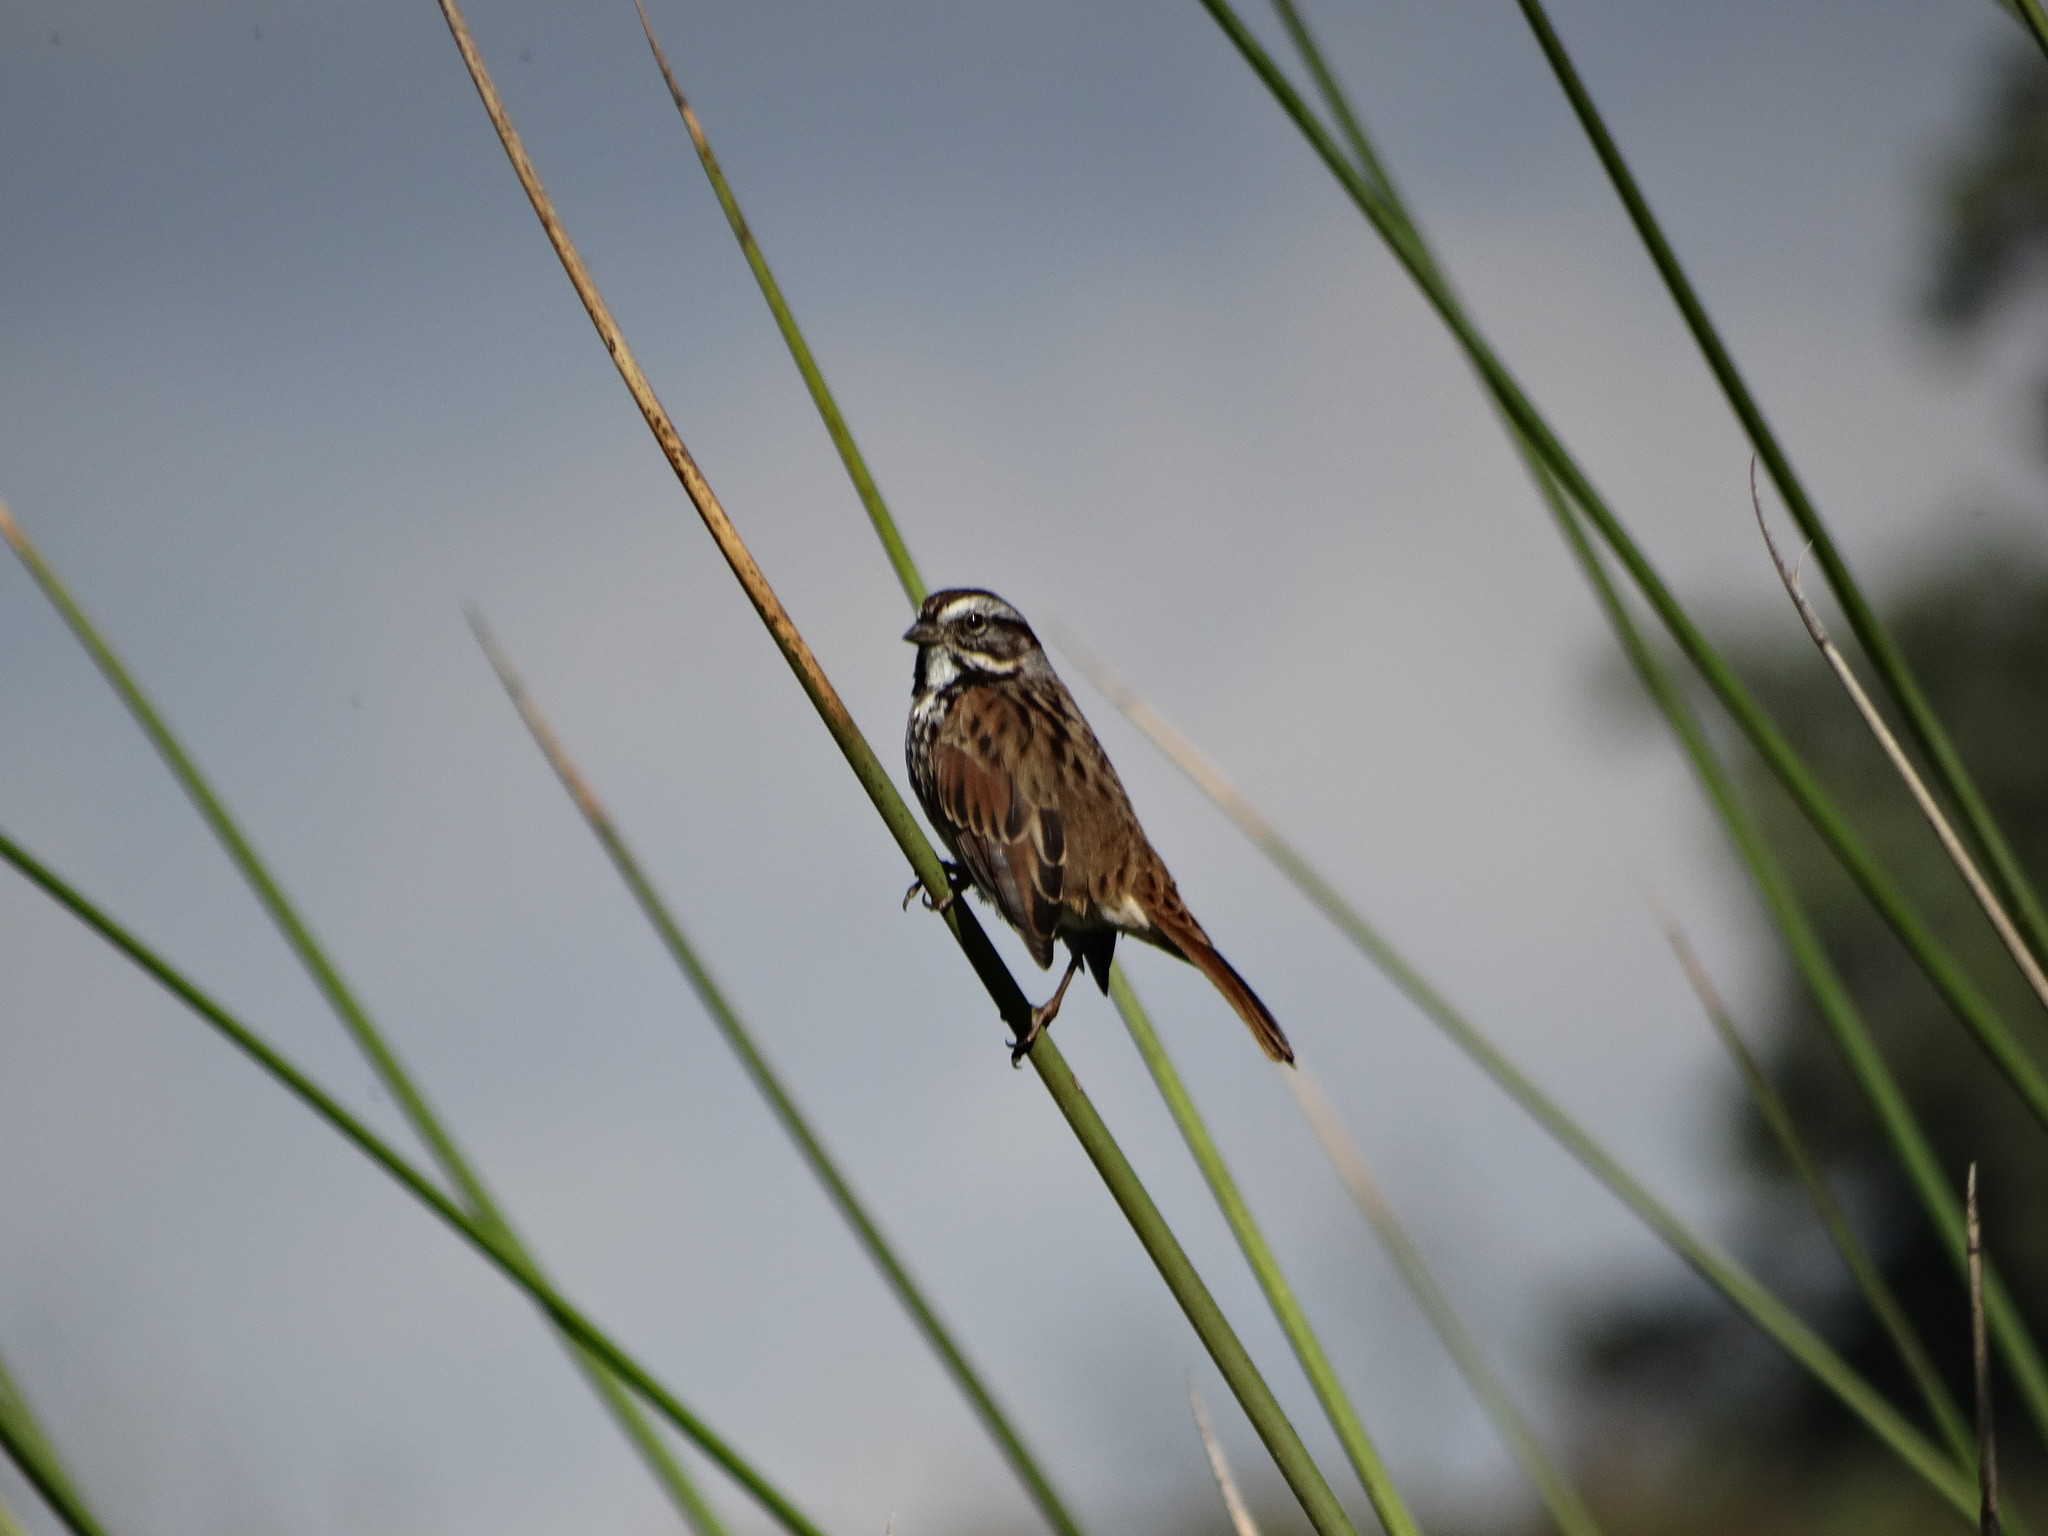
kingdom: Animalia
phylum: Chordata
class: Aves
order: Passeriformes
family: Passerellidae
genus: Melospiza
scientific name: Melospiza melodia
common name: Song sparrow
